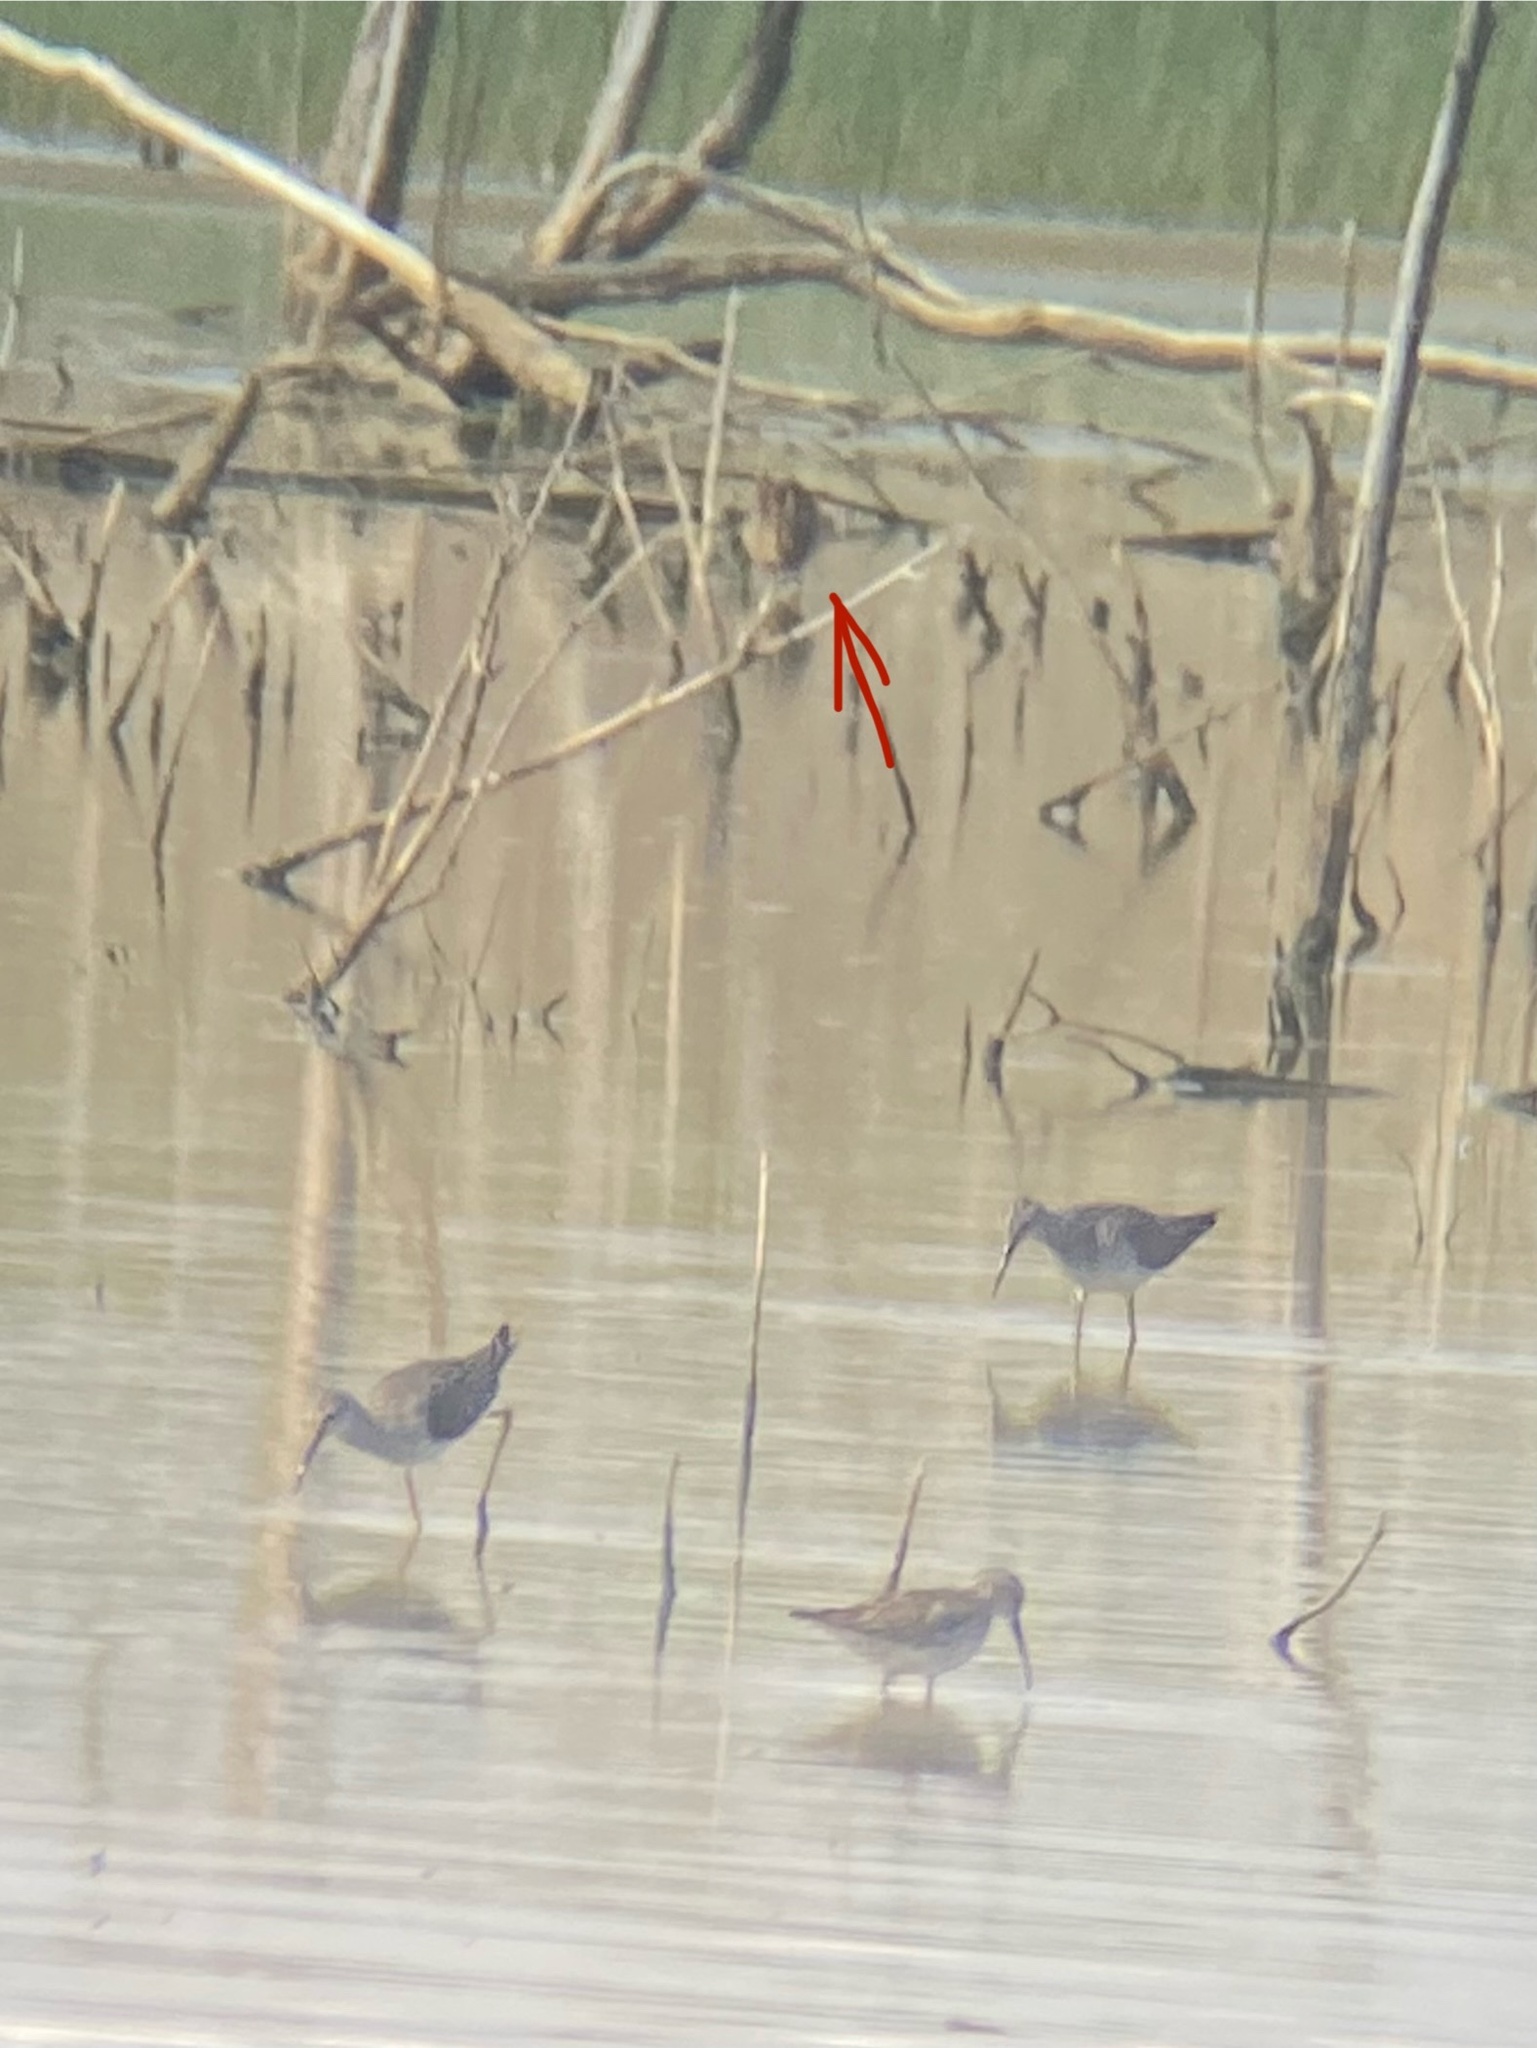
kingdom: Animalia
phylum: Chordata
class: Aves
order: Charadriiformes
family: Scolopacidae
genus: Gallinago
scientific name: Gallinago delicata
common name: Wilson's snipe
